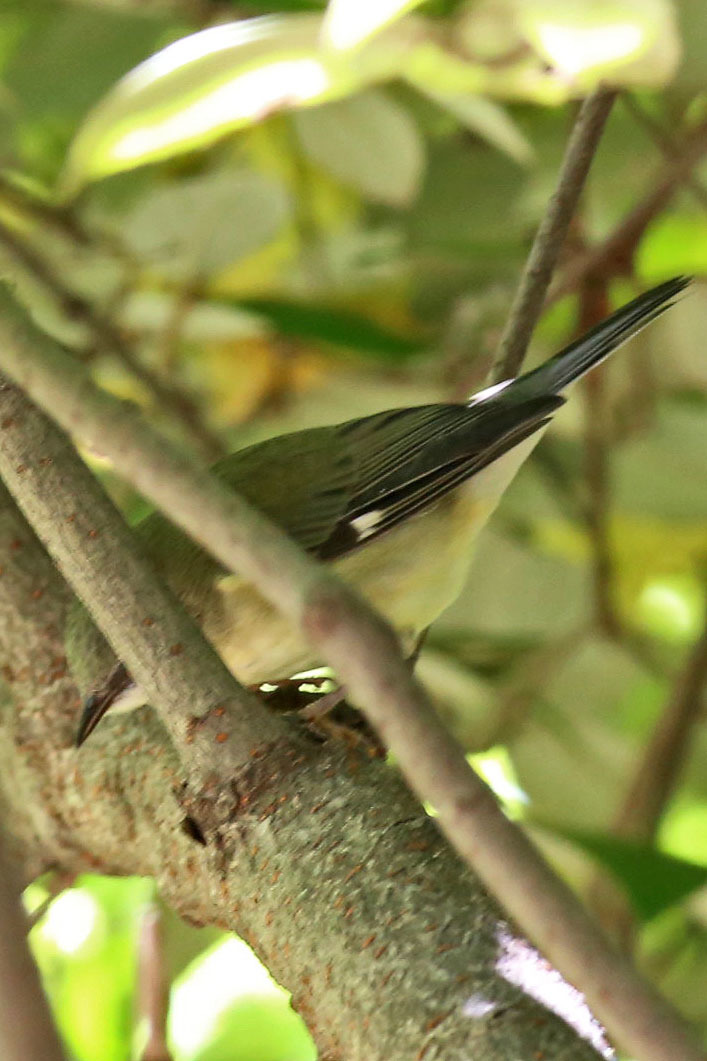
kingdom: Animalia
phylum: Chordata
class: Aves
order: Passeriformes
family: Parulidae
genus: Setophaga
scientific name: Setophaga caerulescens
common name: Black-throated blue warbler
